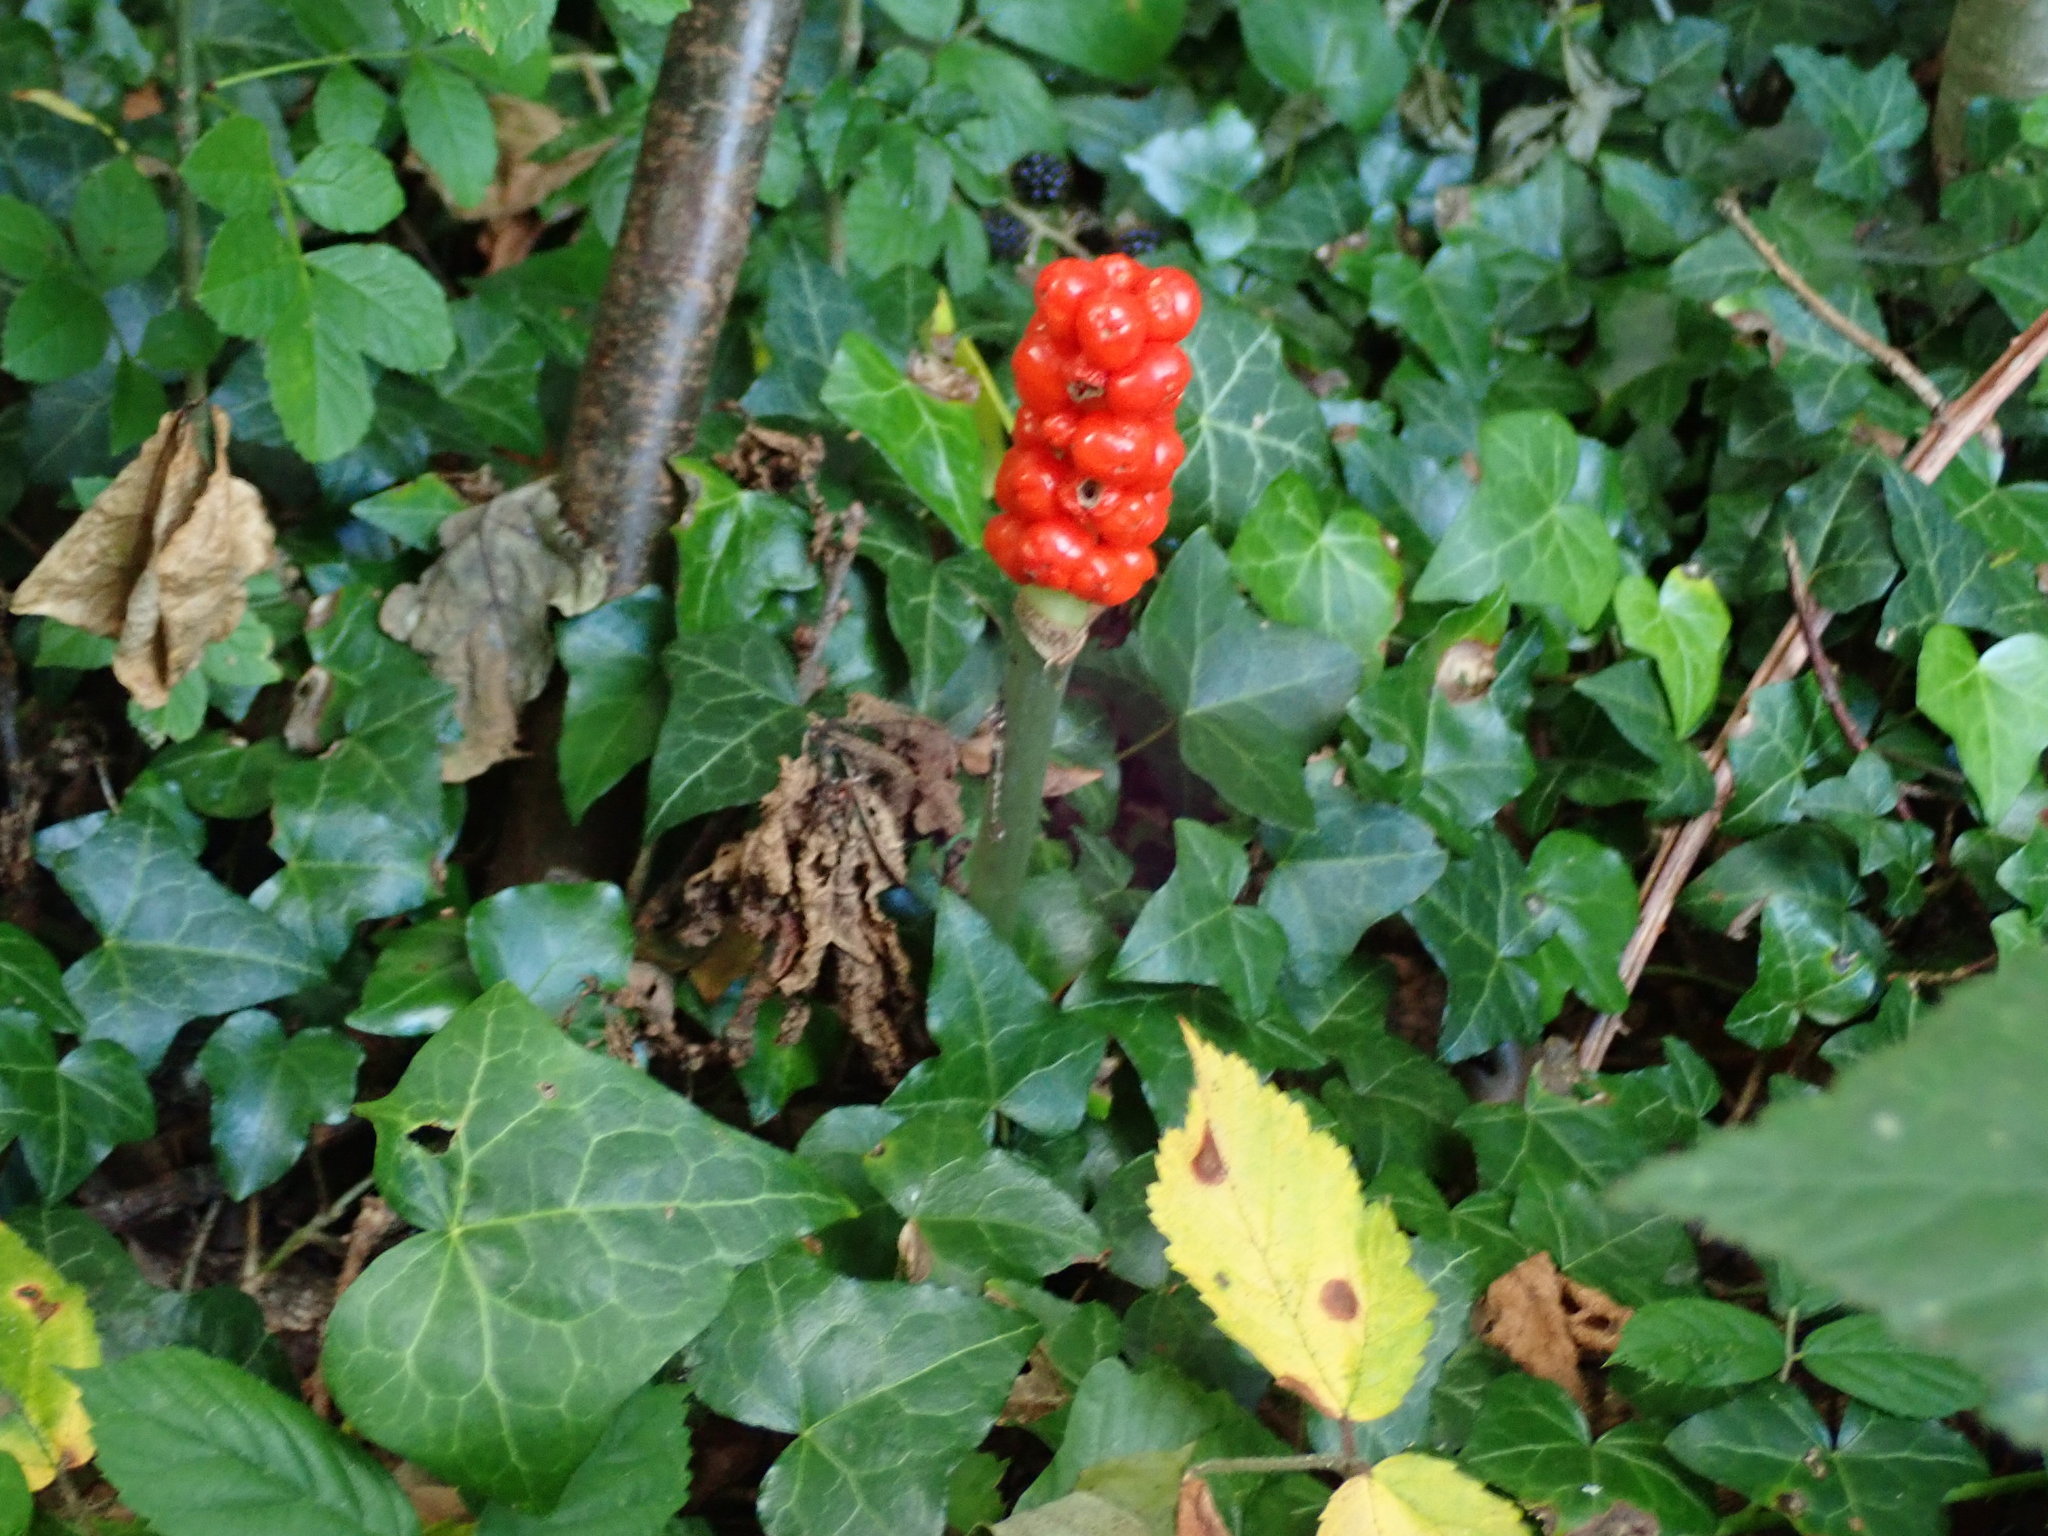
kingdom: Plantae
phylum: Tracheophyta
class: Liliopsida
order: Alismatales
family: Araceae
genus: Arum
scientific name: Arum maculatum
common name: Lords-and-ladies
